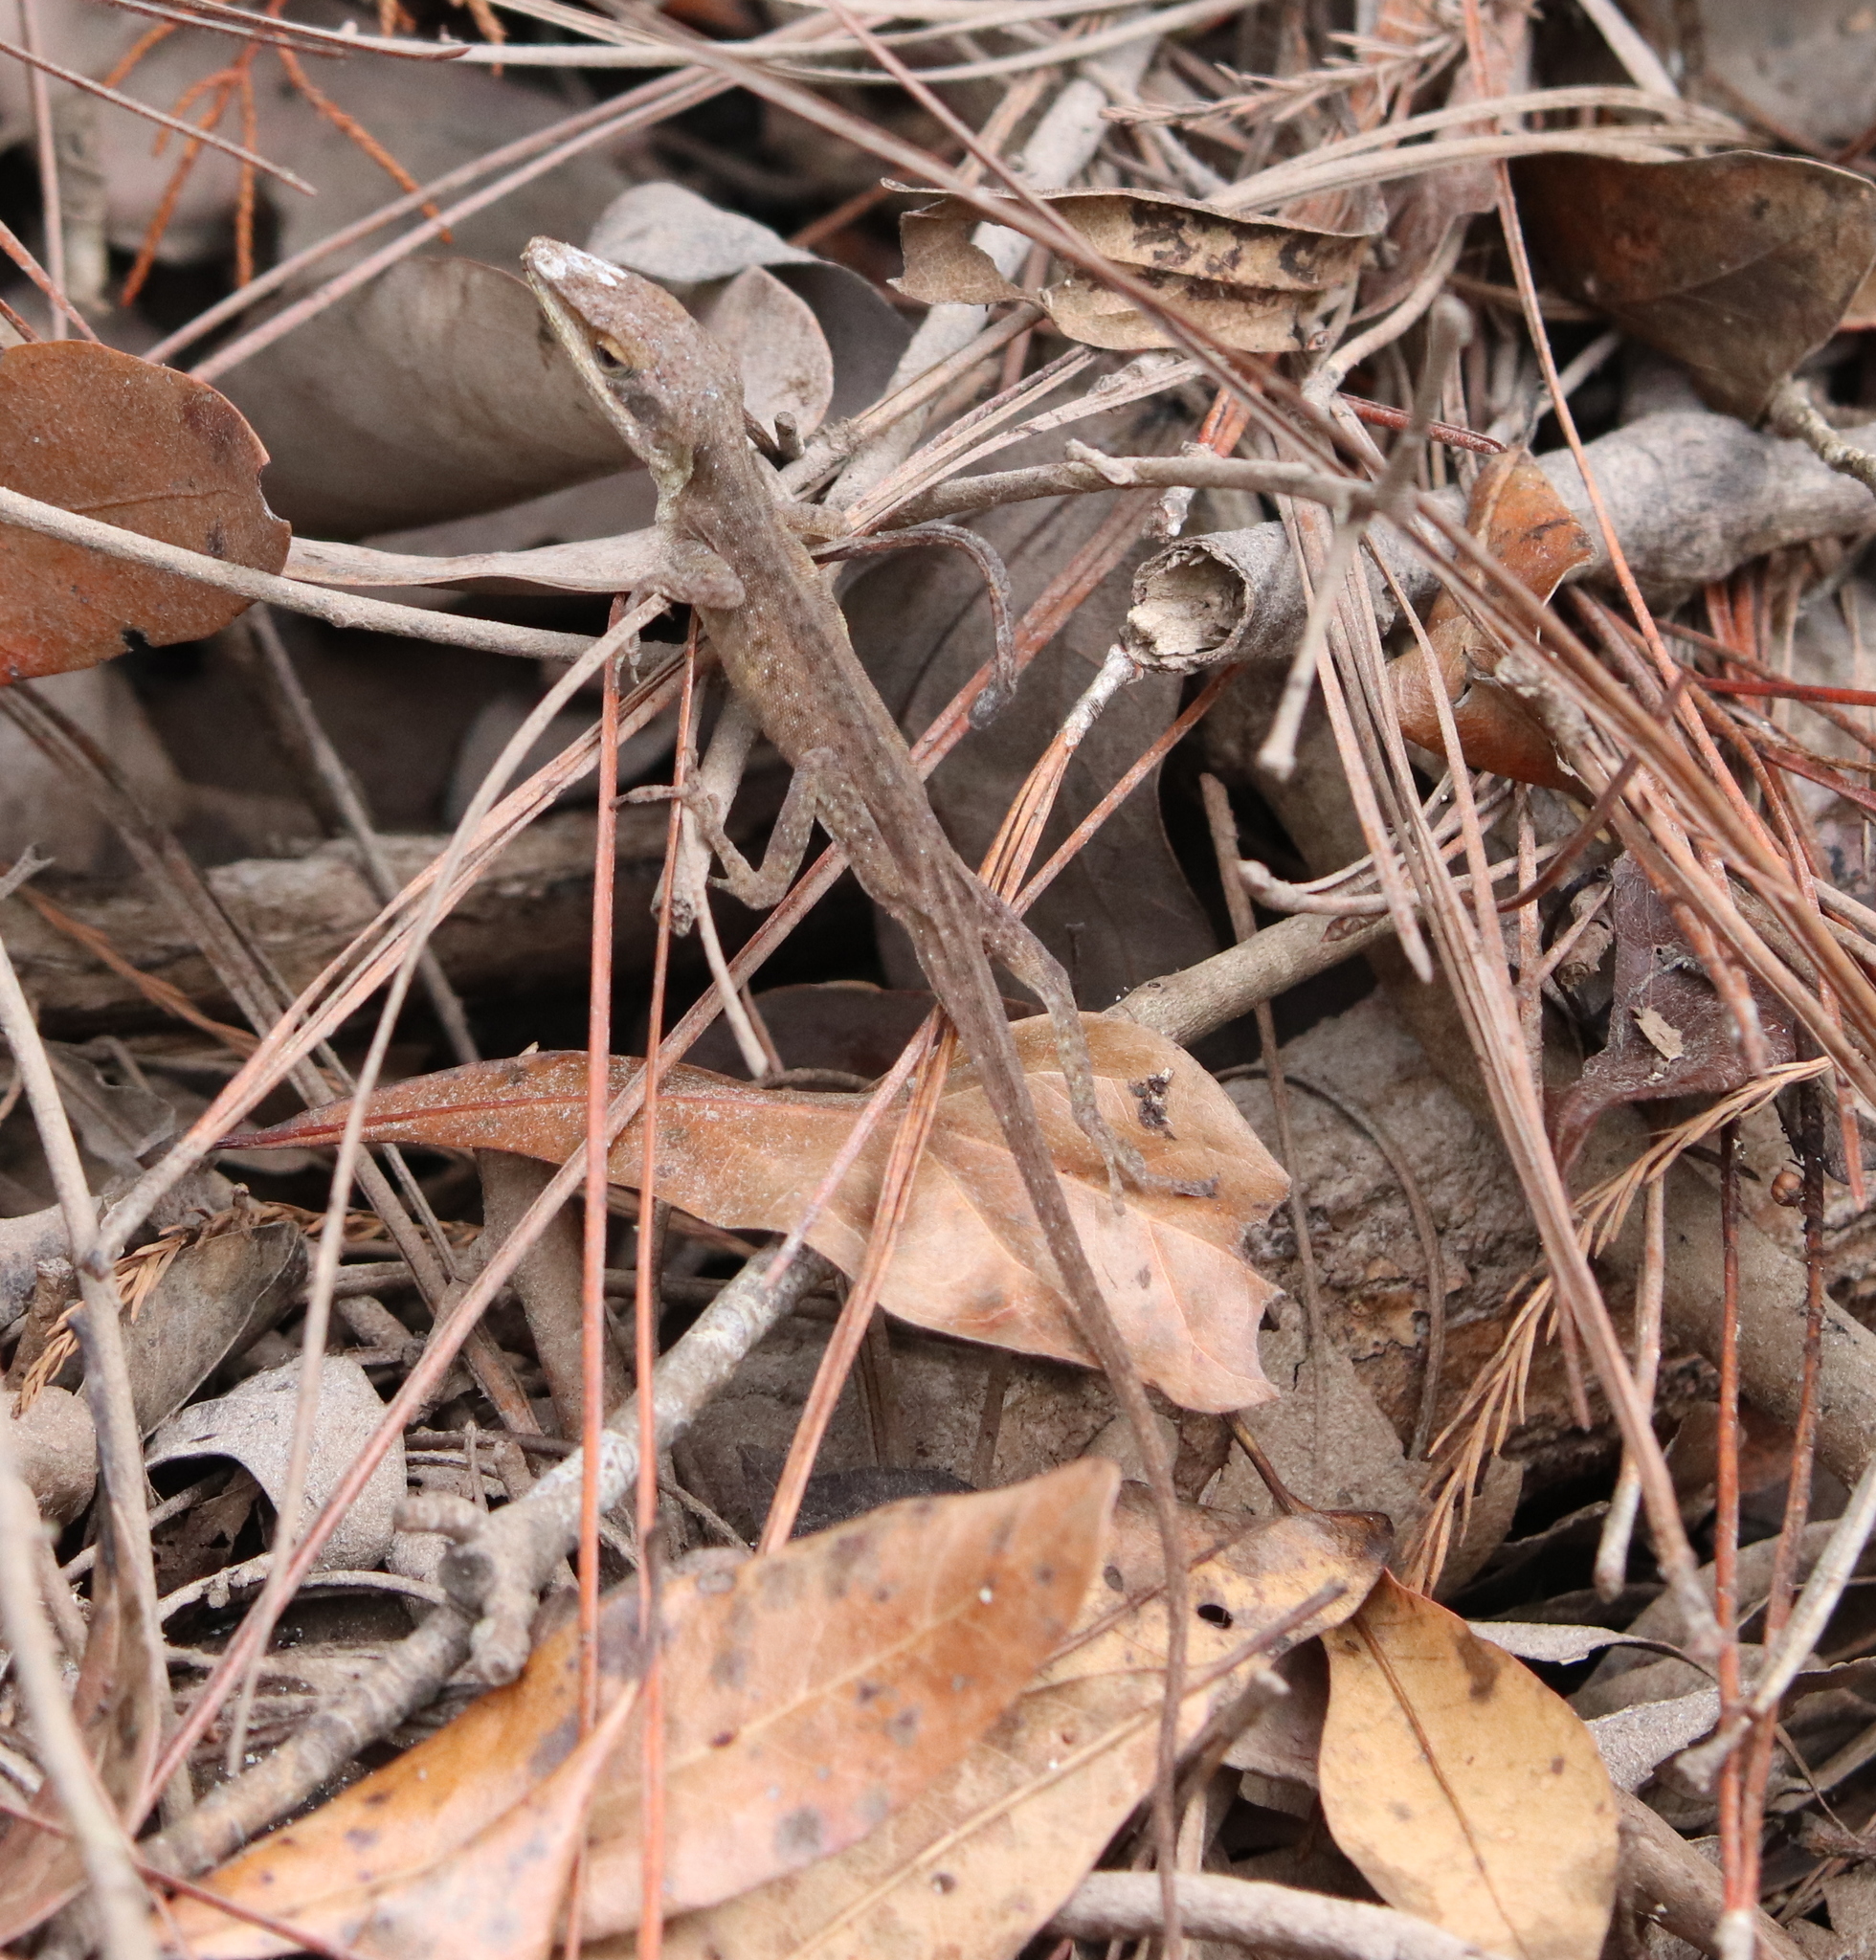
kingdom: Animalia
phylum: Chordata
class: Squamata
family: Dactyloidae
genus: Anolis
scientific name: Anolis carolinensis
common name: Green anole
